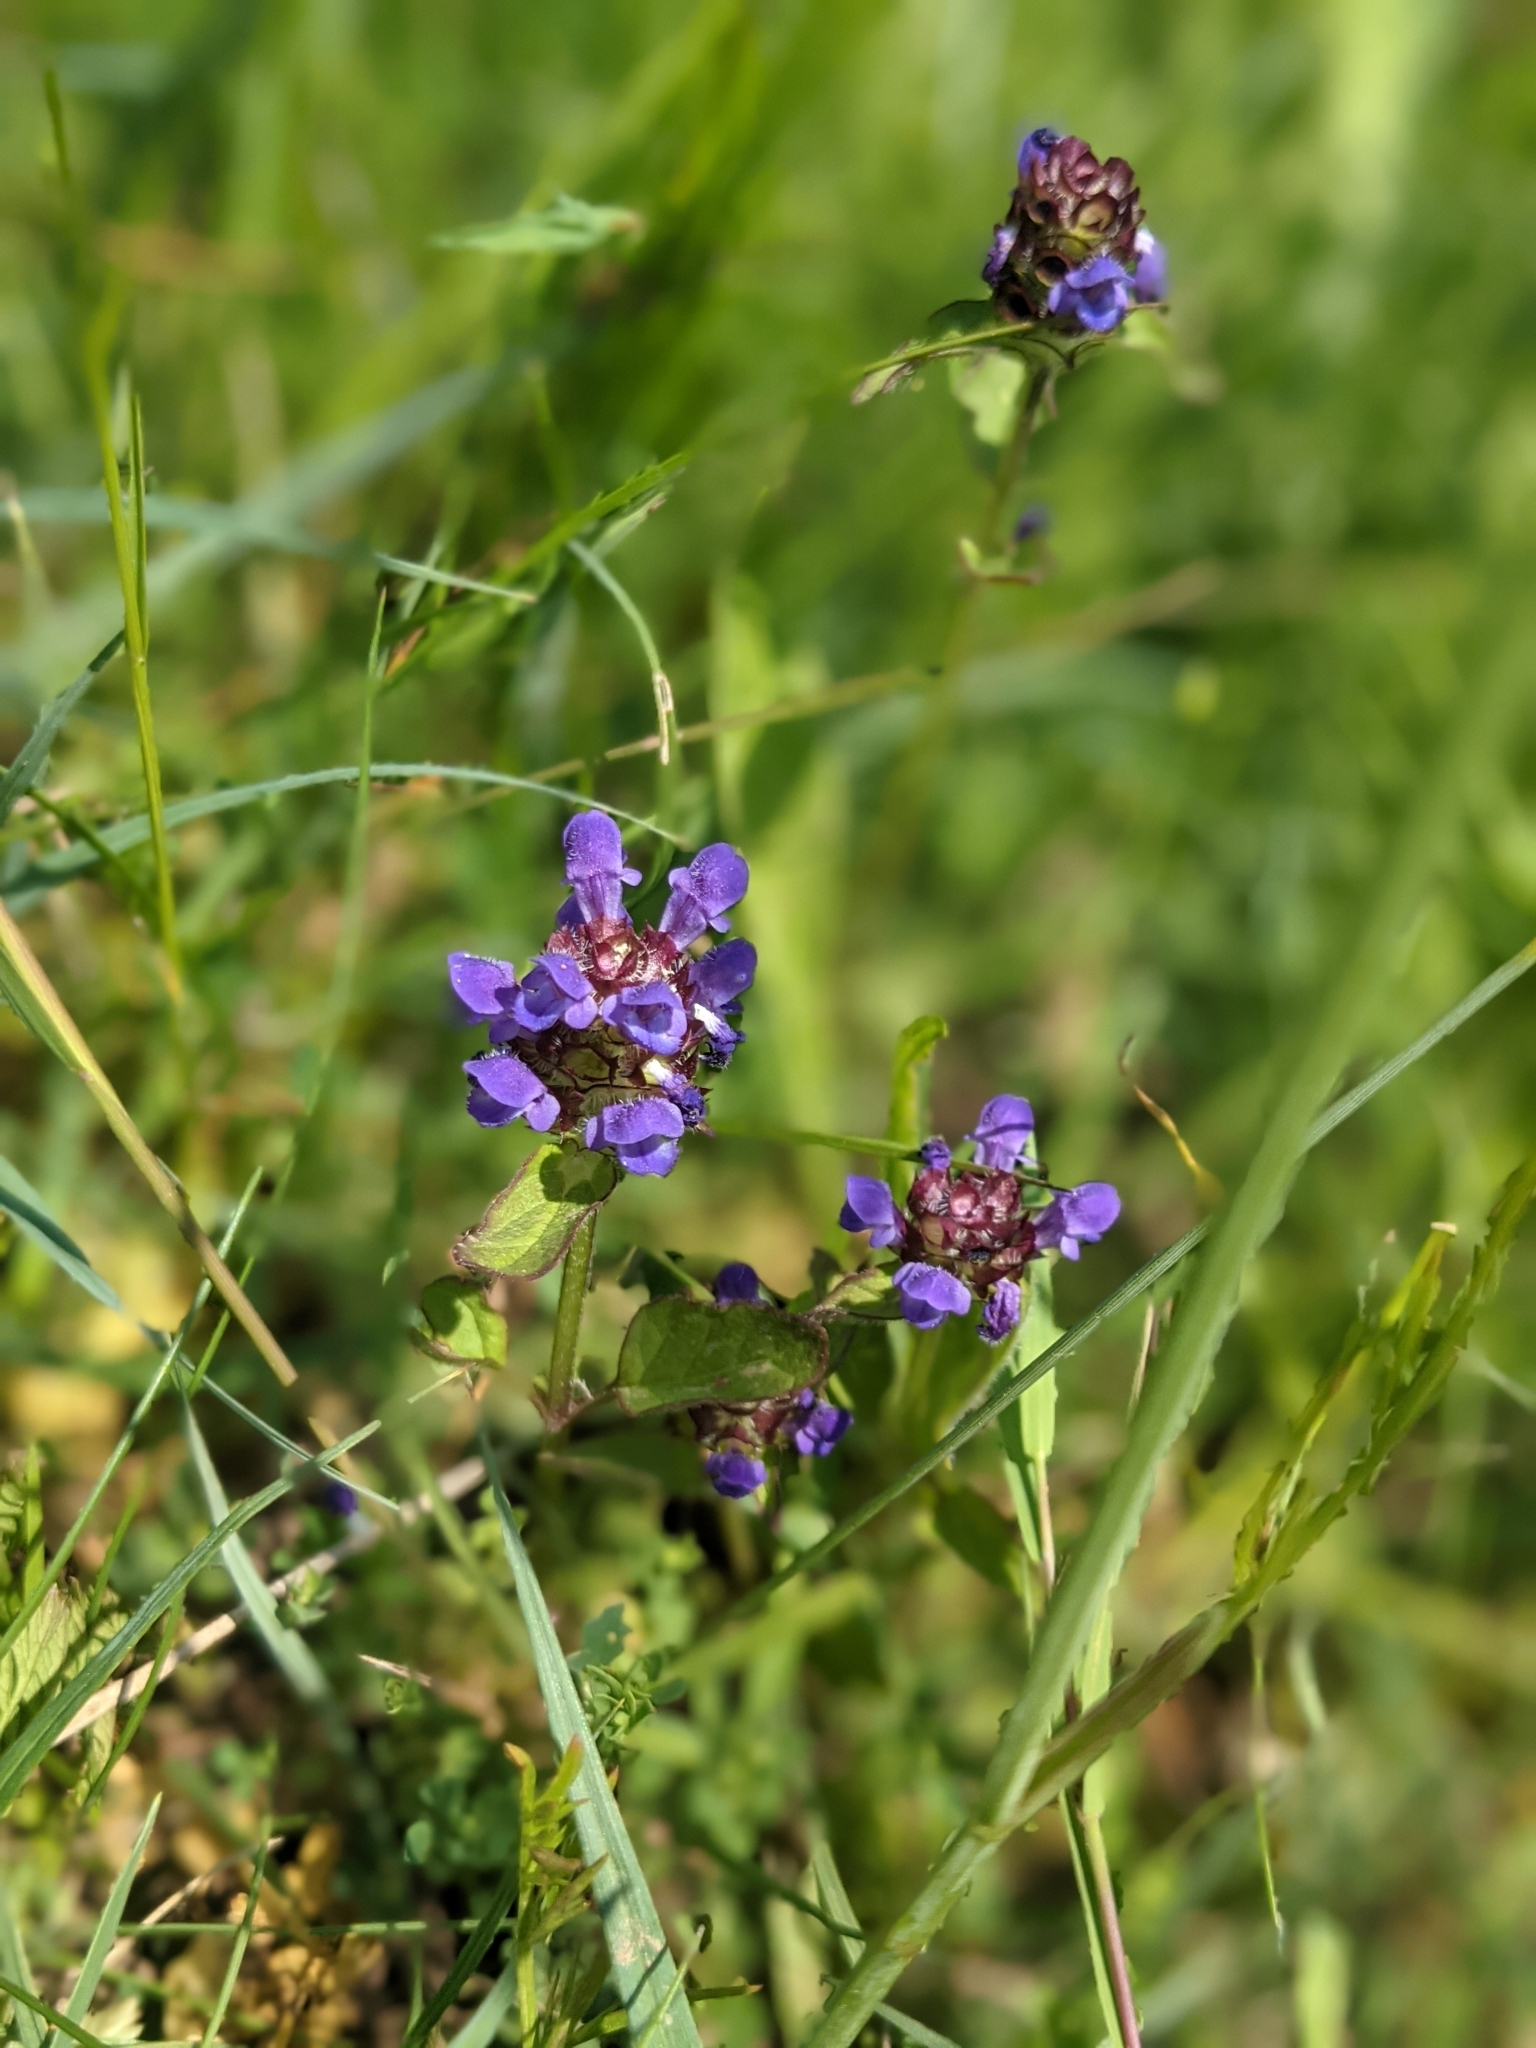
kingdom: Plantae
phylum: Tracheophyta
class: Magnoliopsida
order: Lamiales
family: Lamiaceae
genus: Prunella
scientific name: Prunella vulgaris
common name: Heal-all
